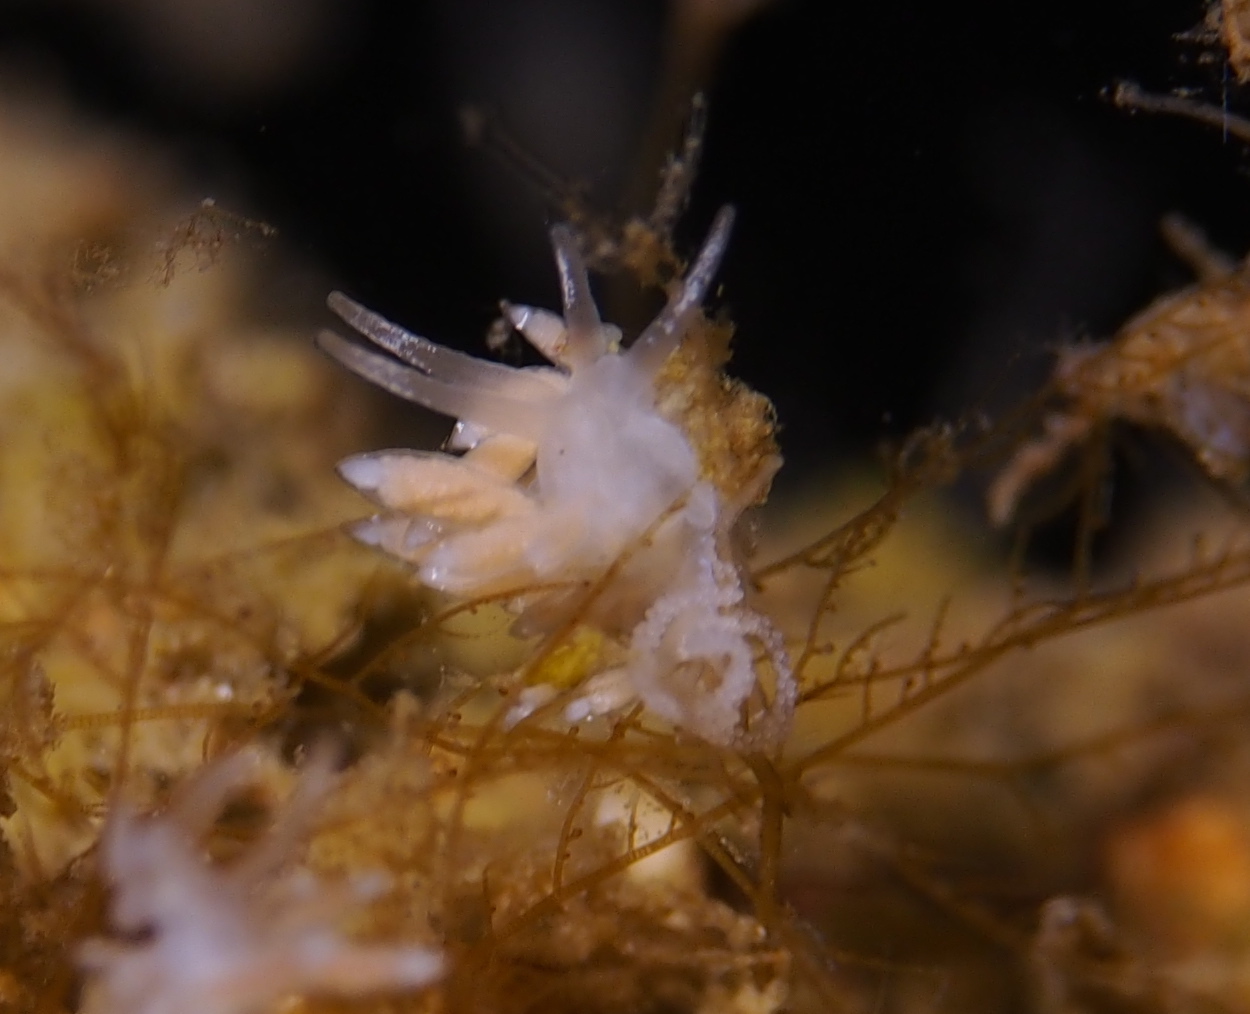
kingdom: Animalia
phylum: Mollusca
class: Gastropoda
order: Nudibranchia
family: Coryphellidae
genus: Coryphella
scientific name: Coryphella gracilis
